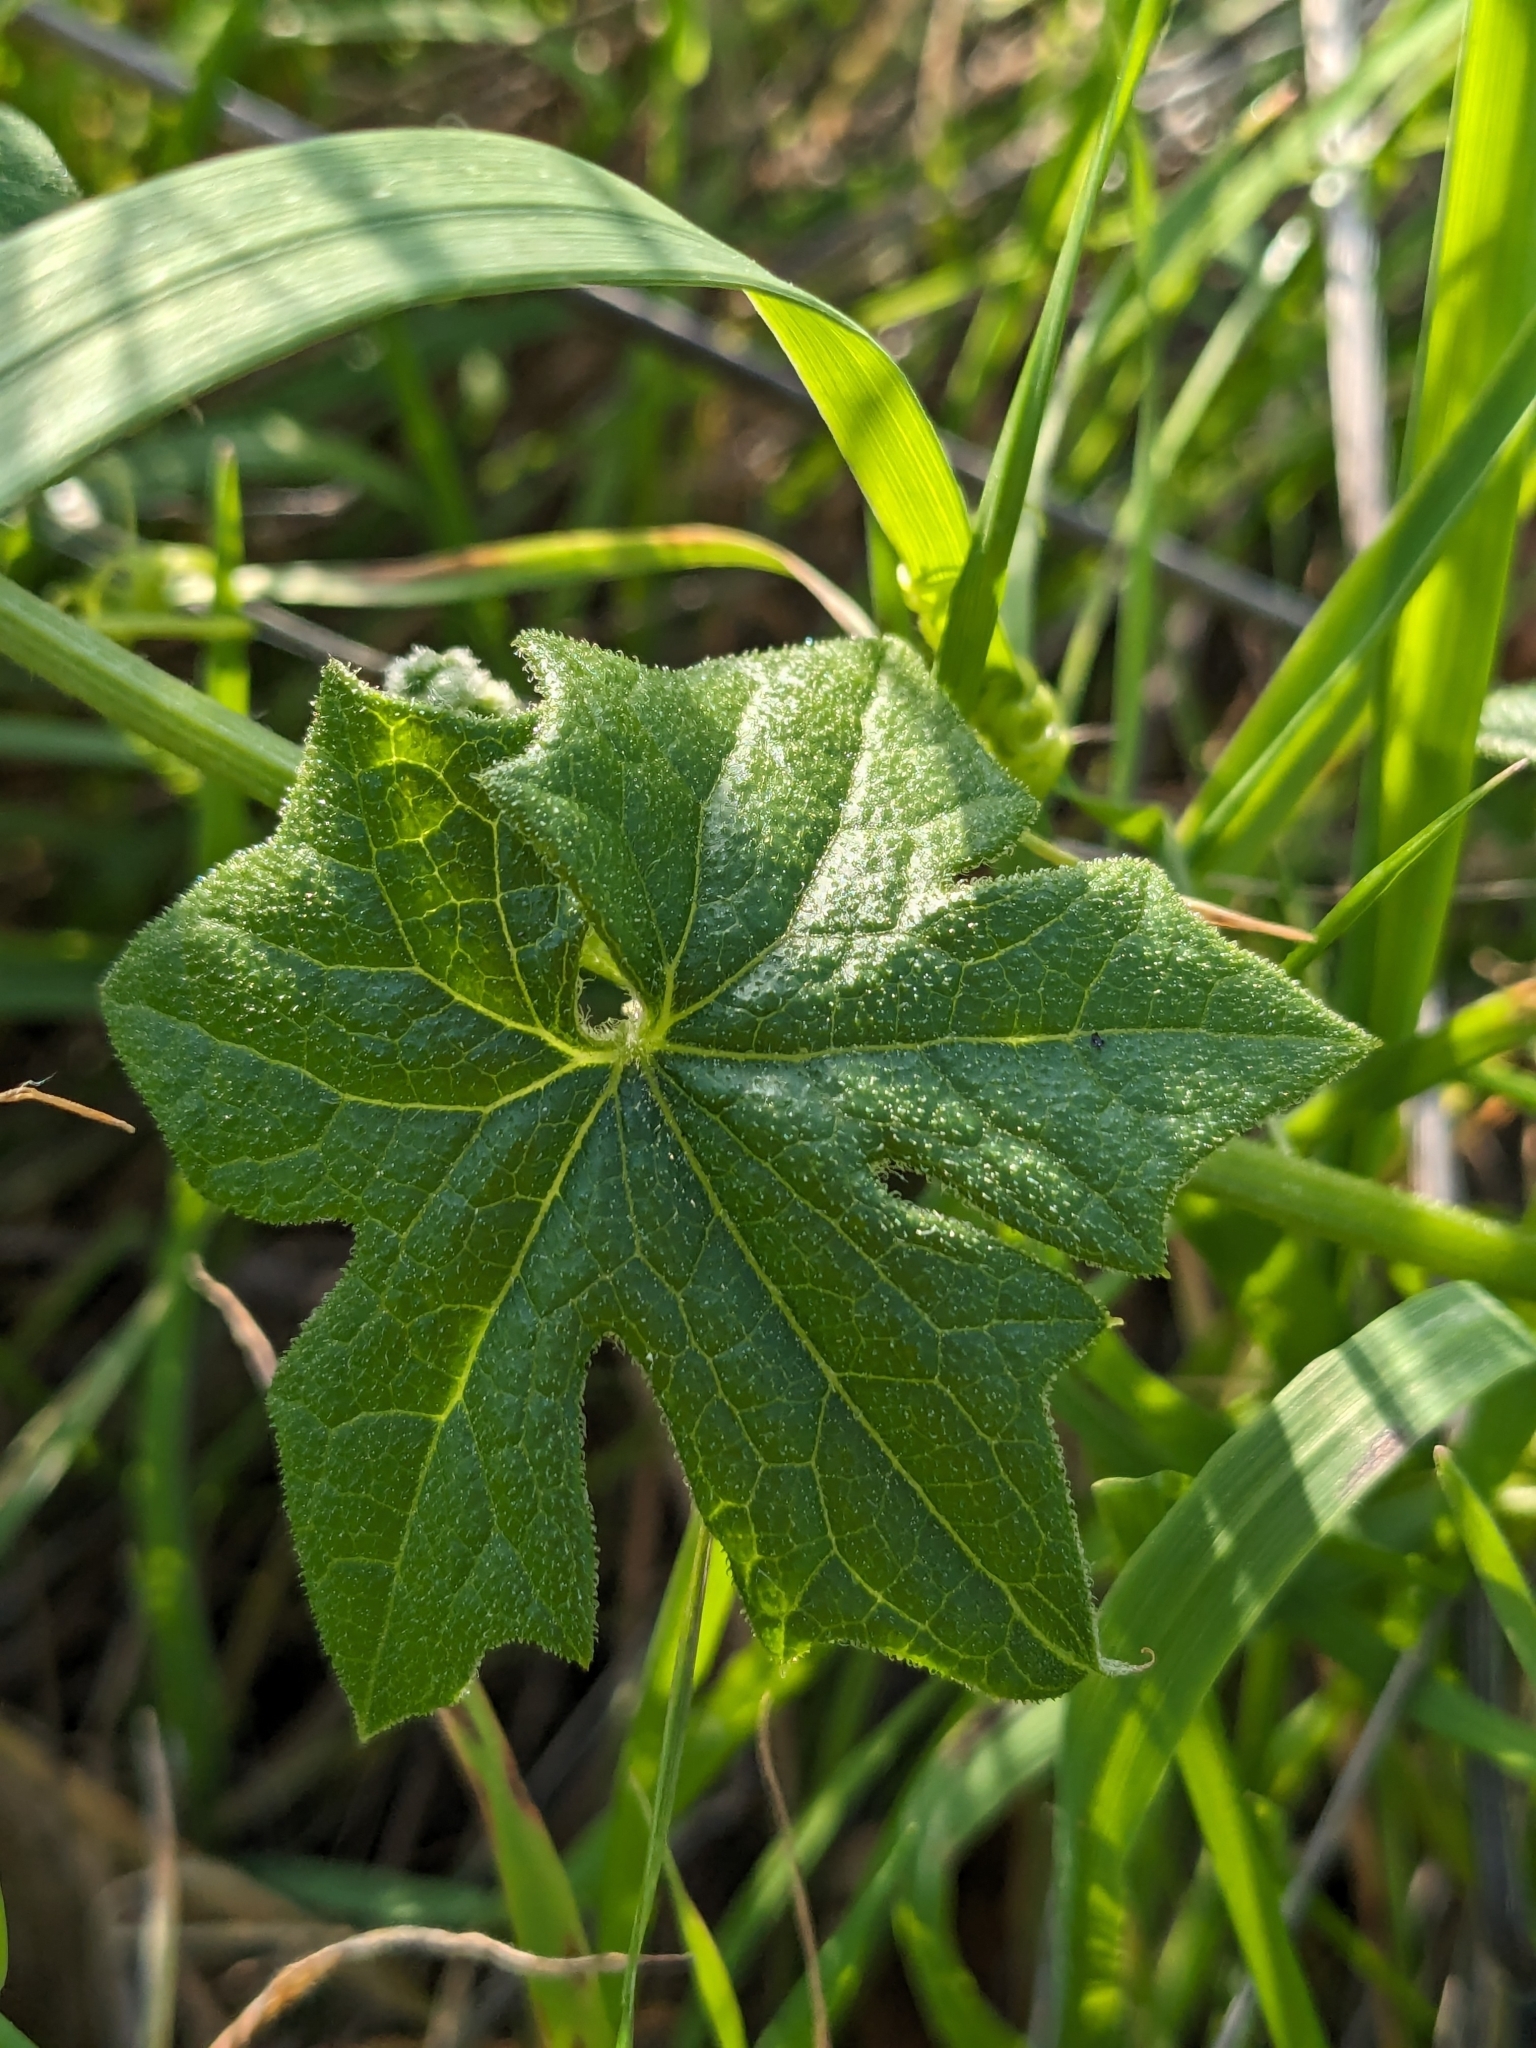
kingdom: Plantae
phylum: Tracheophyta
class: Magnoliopsida
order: Cucurbitales
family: Cucurbitaceae
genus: Marah
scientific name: Marah fabacea
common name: California manroot
